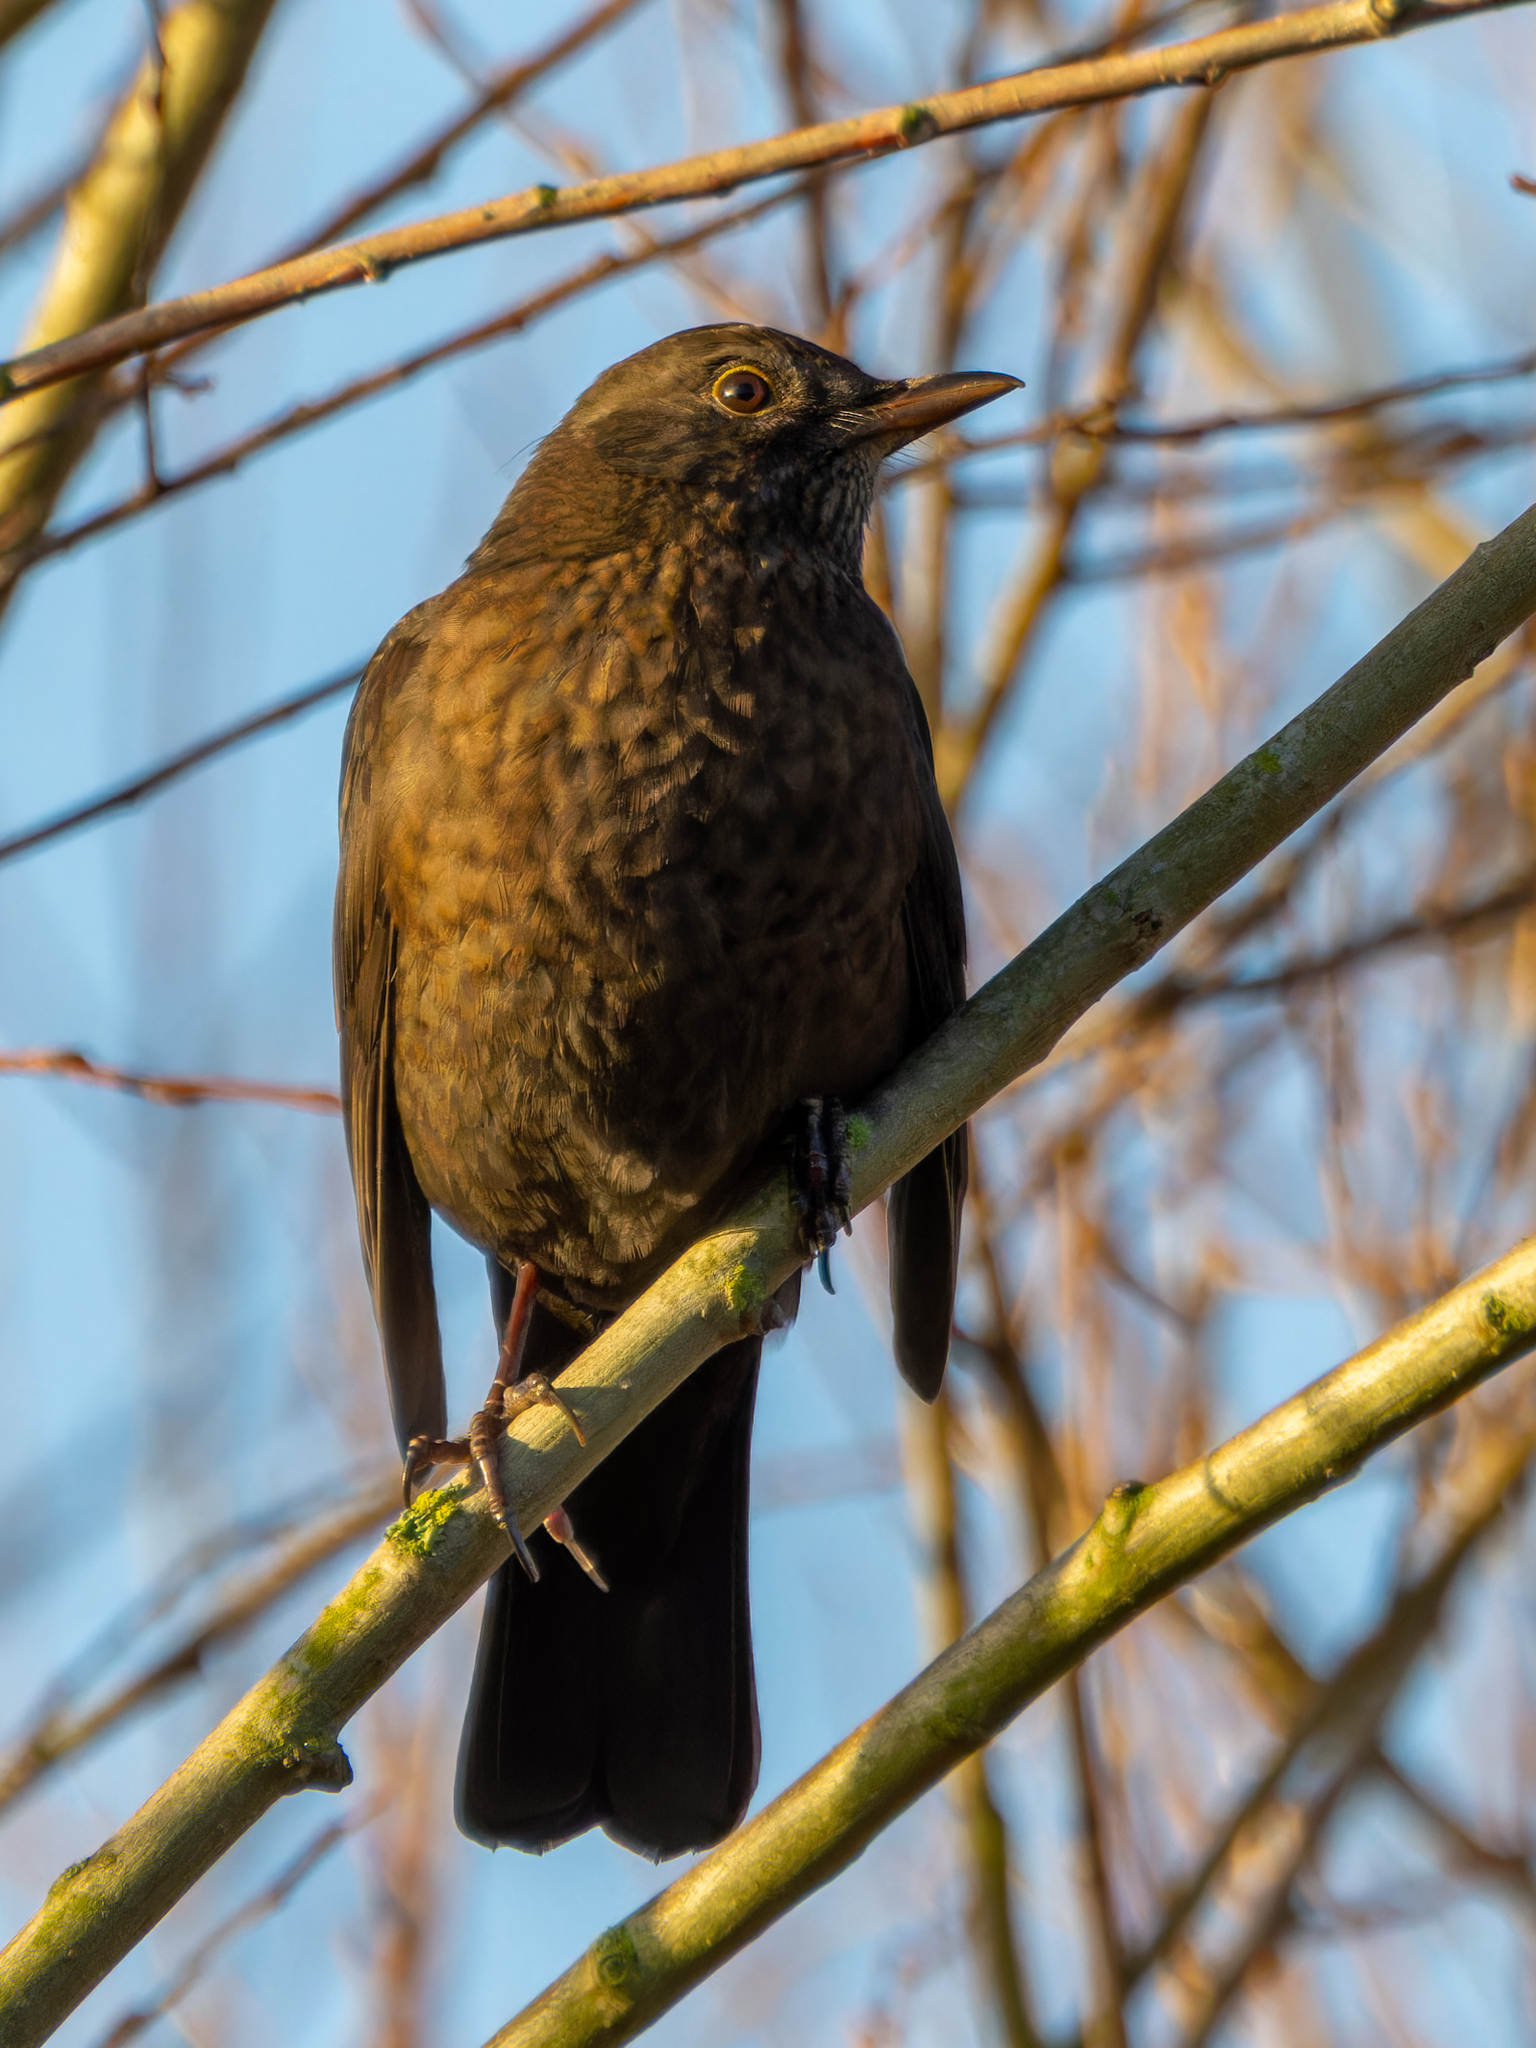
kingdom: Animalia
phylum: Chordata
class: Aves
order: Passeriformes
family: Turdidae
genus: Turdus
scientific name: Turdus merula
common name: Common blackbird
